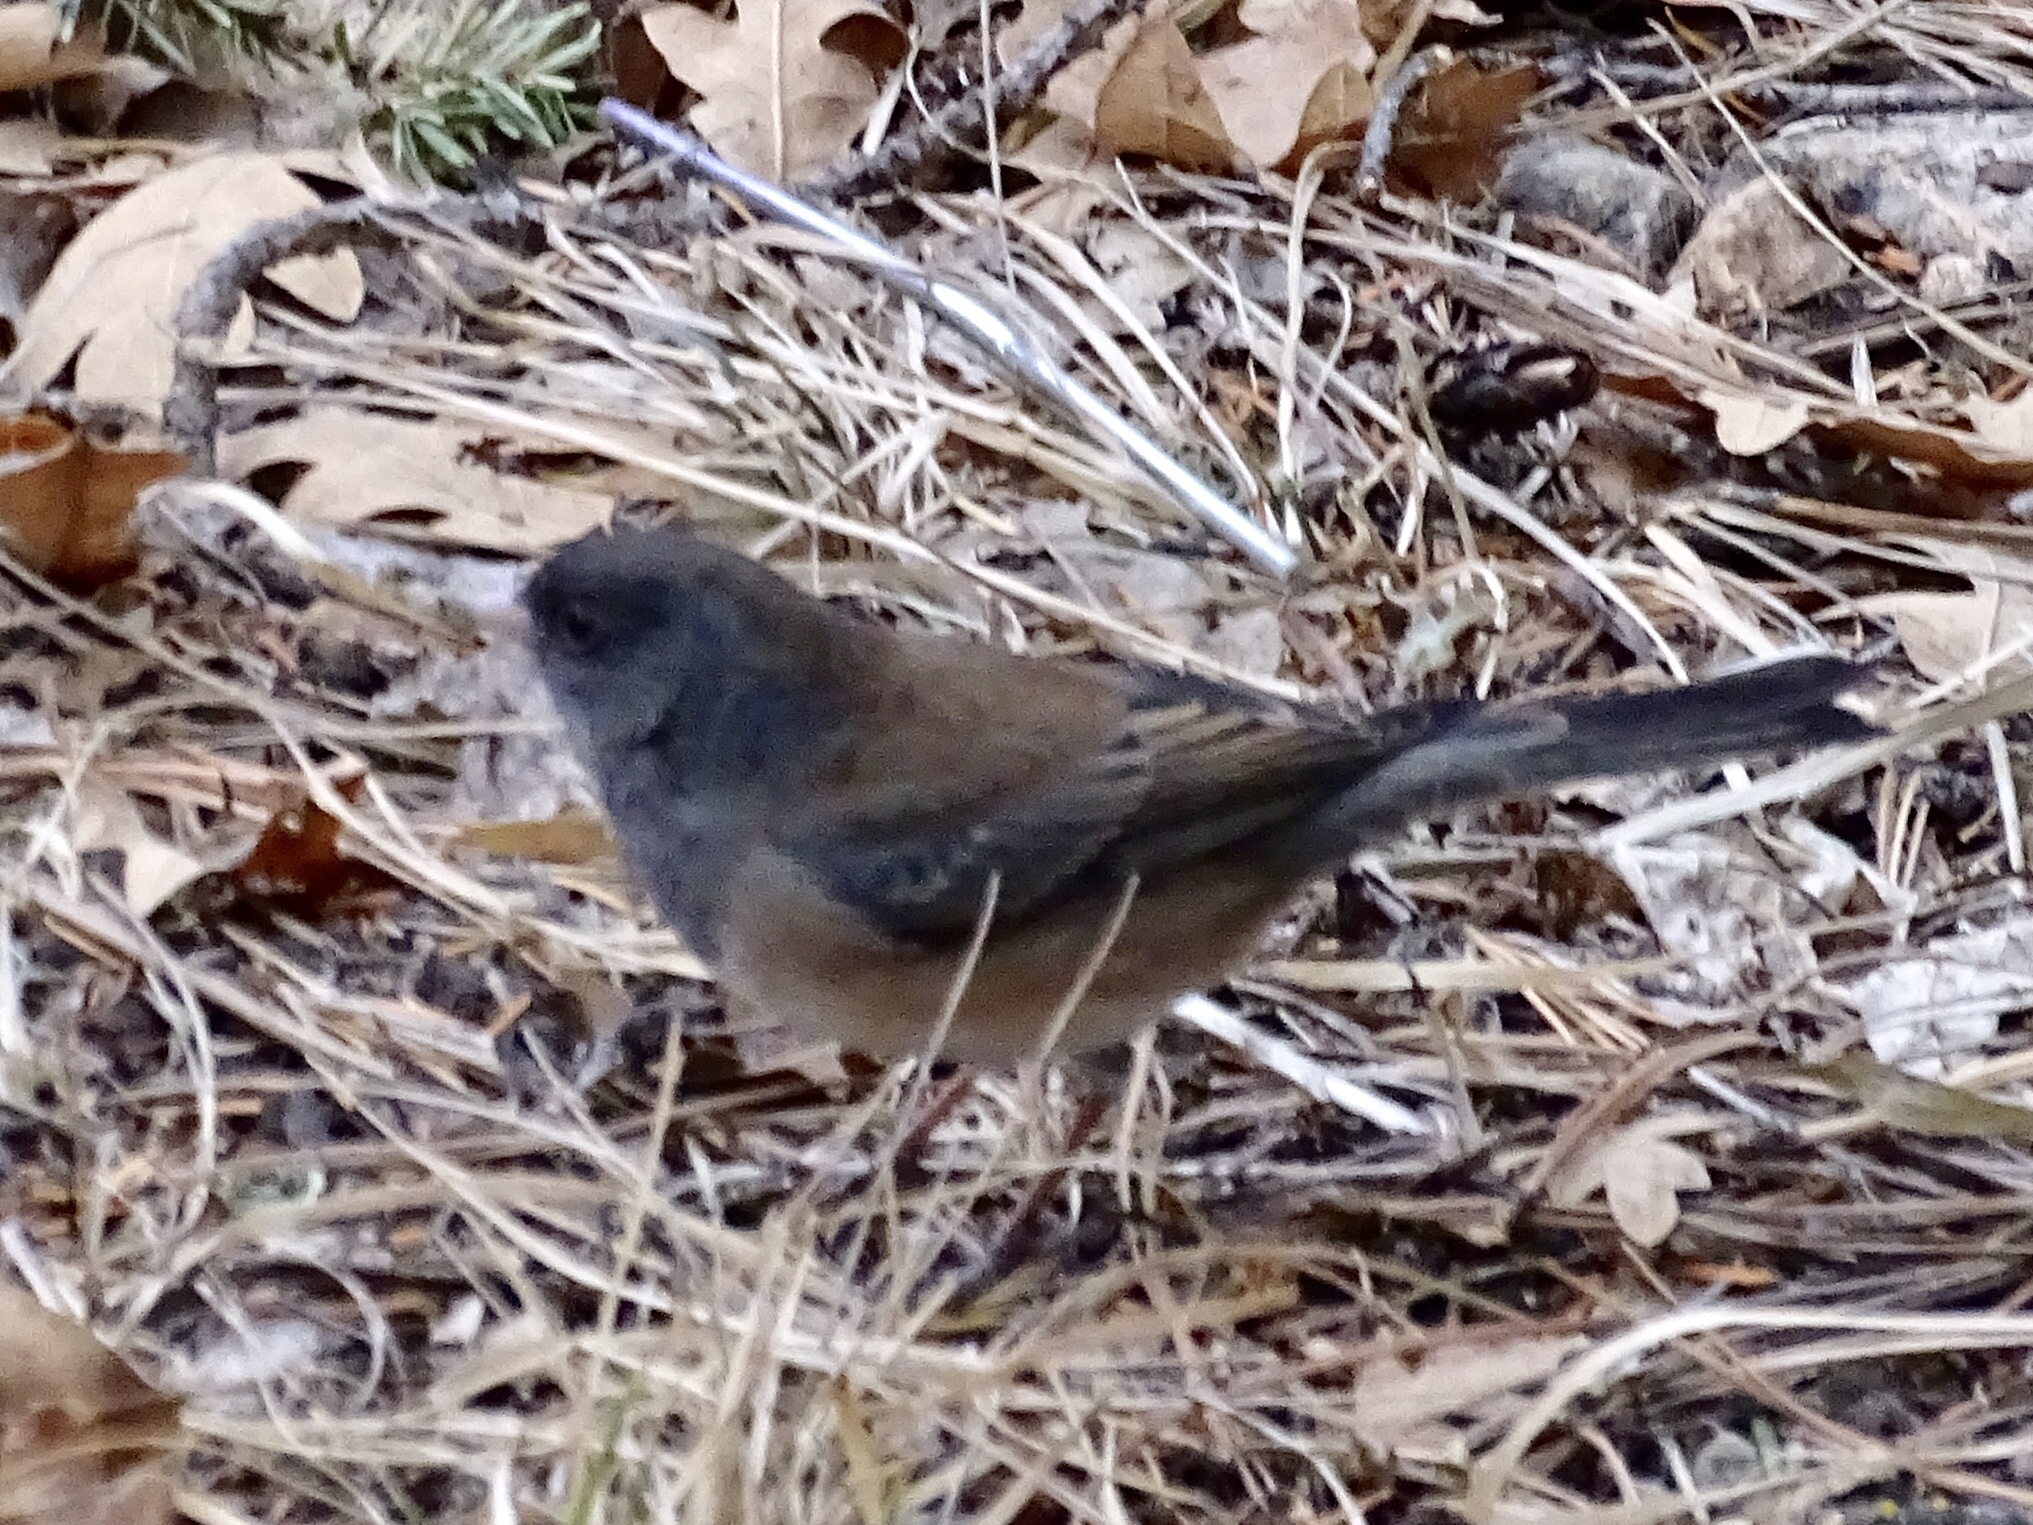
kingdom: Animalia
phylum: Chordata
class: Aves
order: Passeriformes
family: Passerellidae
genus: Junco
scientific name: Junco hyemalis
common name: Dark-eyed junco
